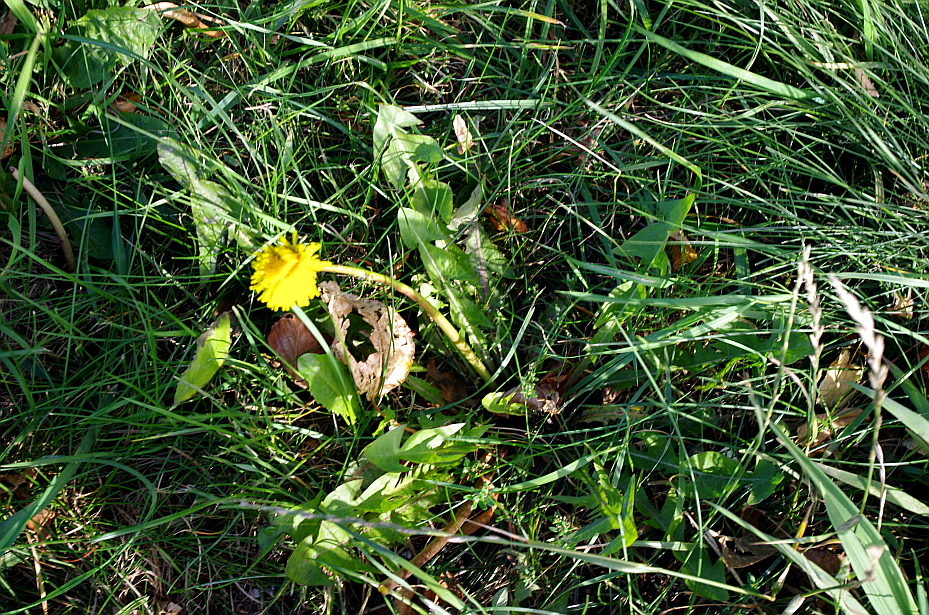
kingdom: Plantae
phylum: Tracheophyta
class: Magnoliopsida
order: Asterales
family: Asteraceae
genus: Taraxacum
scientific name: Taraxacum officinale
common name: Common dandelion
